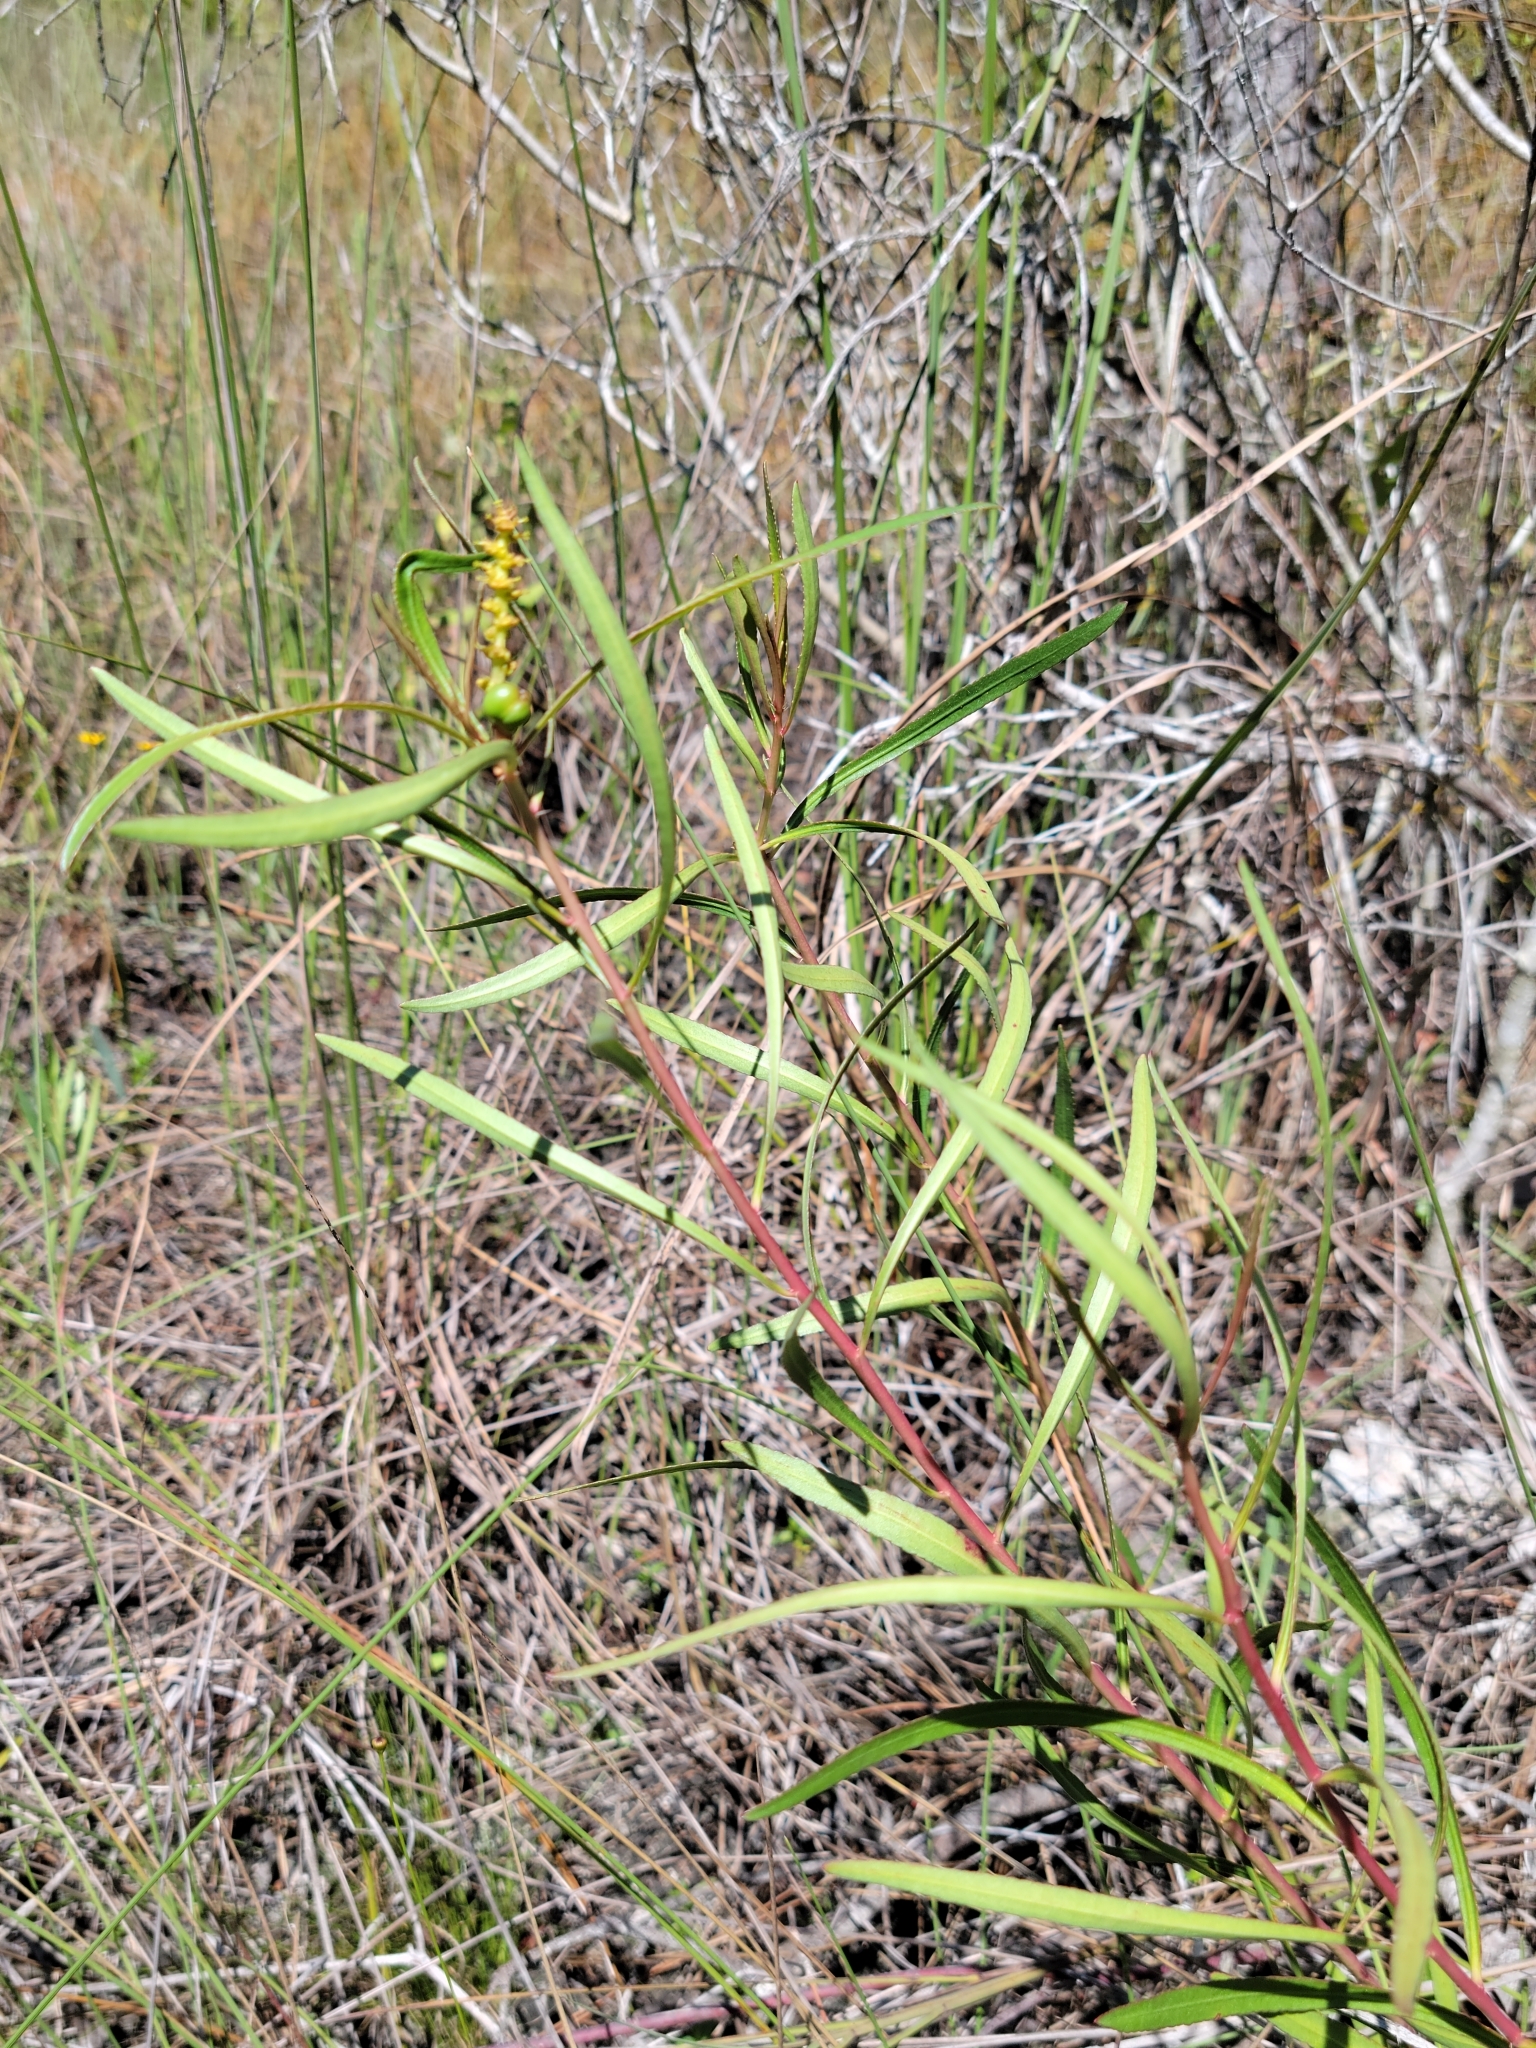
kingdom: Plantae
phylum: Tracheophyta
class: Magnoliopsida
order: Malpighiales
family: Euphorbiaceae
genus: Stillingia
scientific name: Stillingia sylvatica
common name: Queen's-delight
